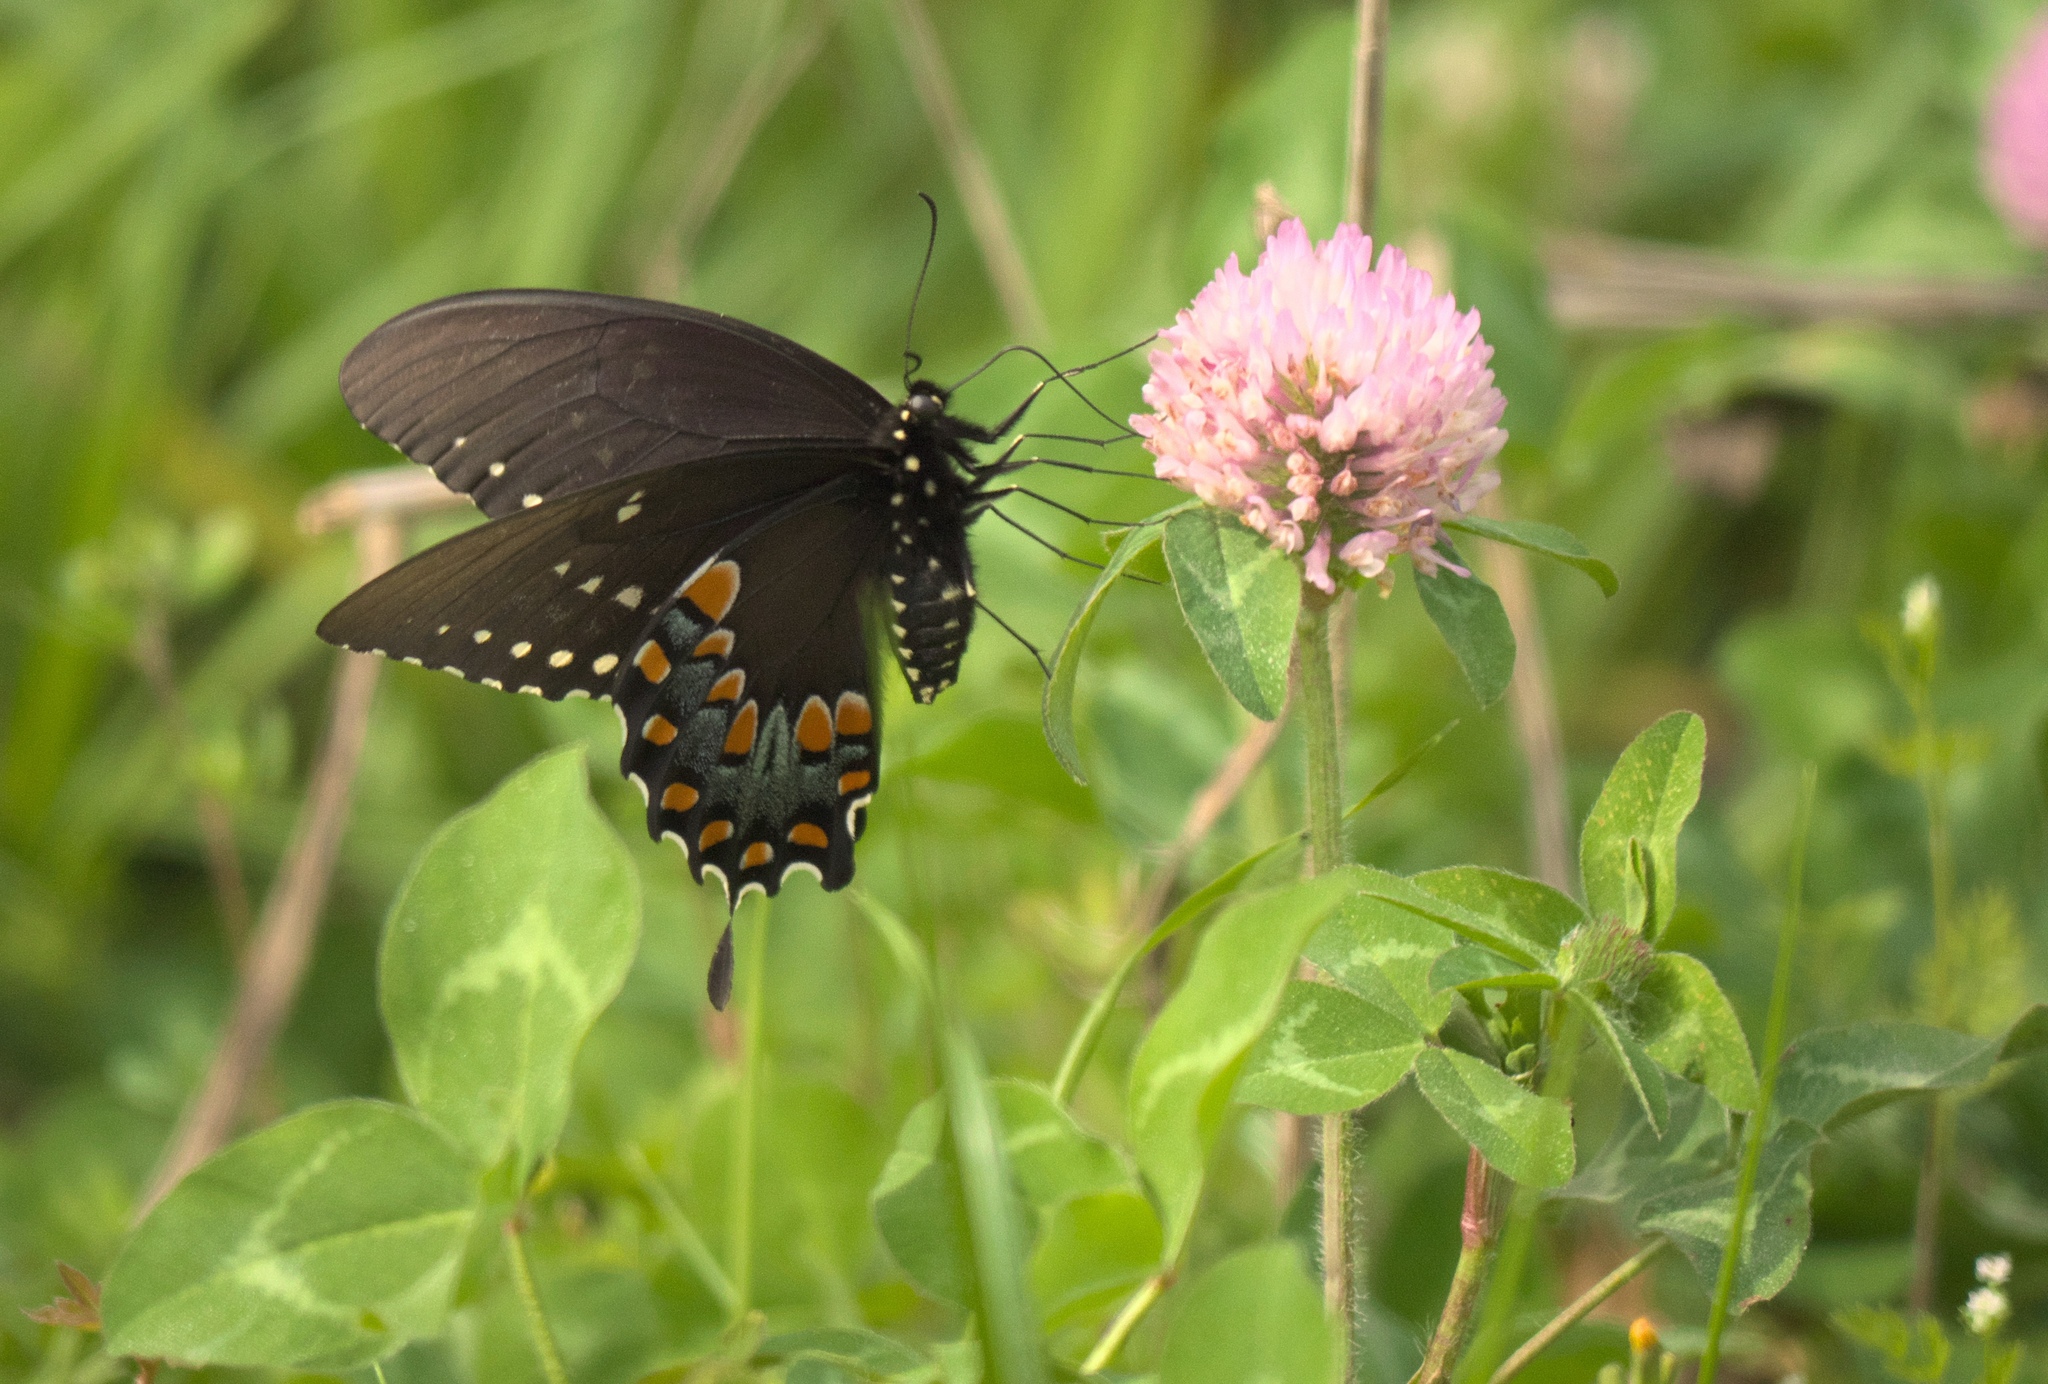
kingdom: Plantae
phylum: Tracheophyta
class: Magnoliopsida
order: Fabales
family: Fabaceae
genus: Trifolium
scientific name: Trifolium pratense
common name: Red clover
